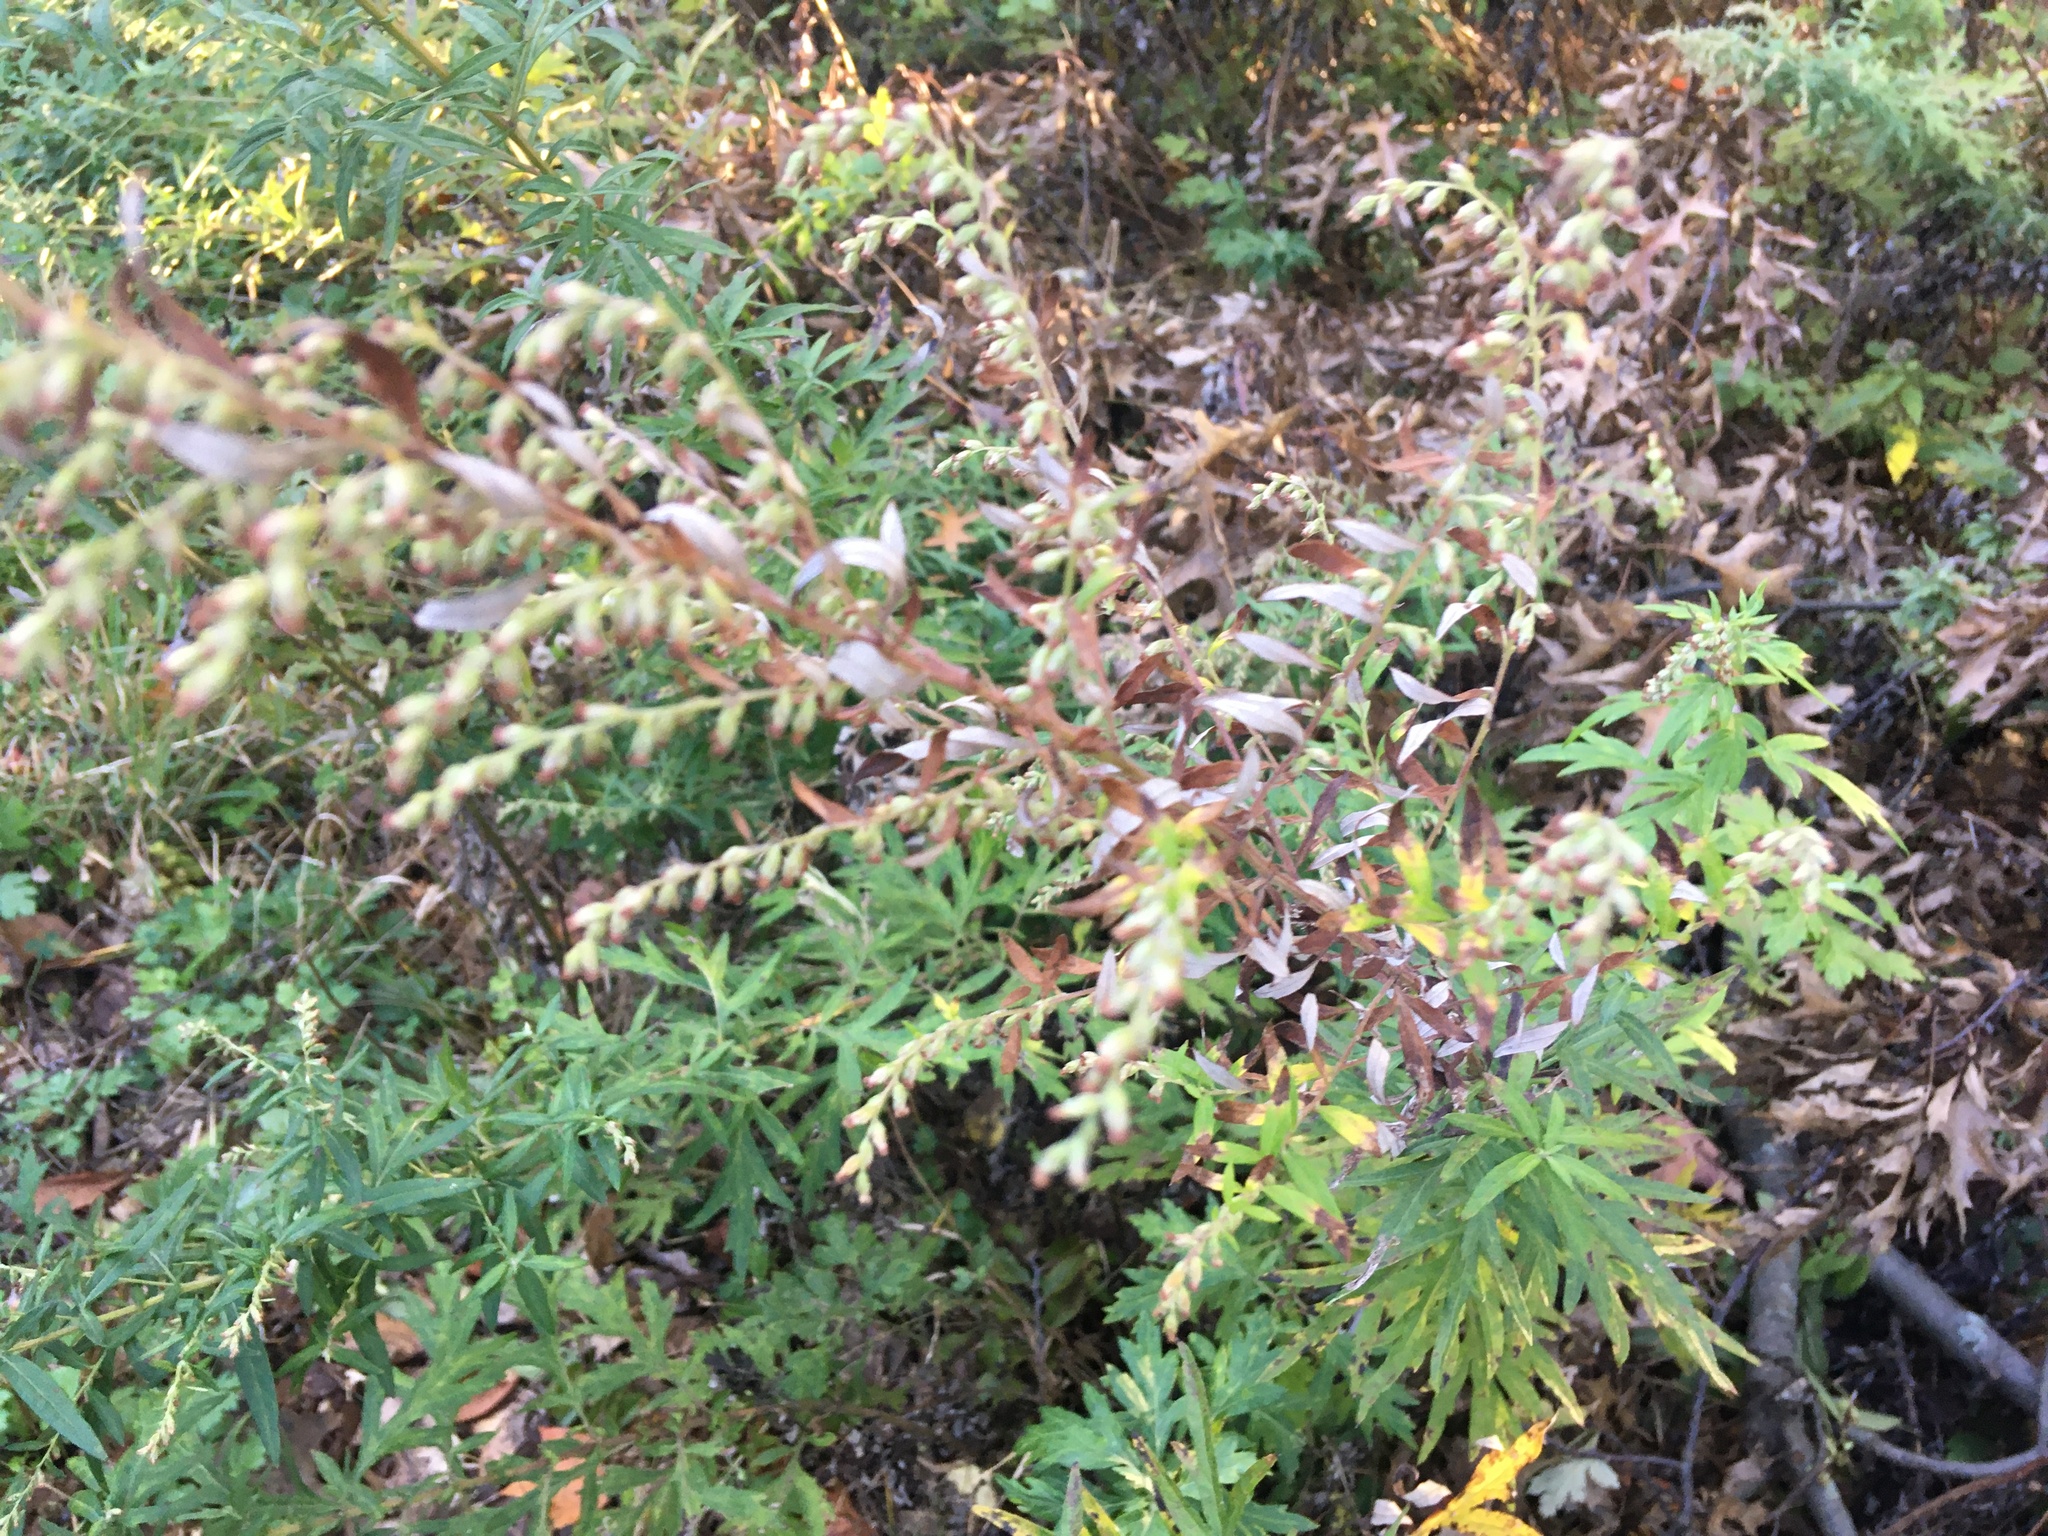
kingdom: Plantae
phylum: Tracheophyta
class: Magnoliopsida
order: Asterales
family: Asteraceae
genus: Artemisia
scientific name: Artemisia vulgaris
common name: Mugwort
